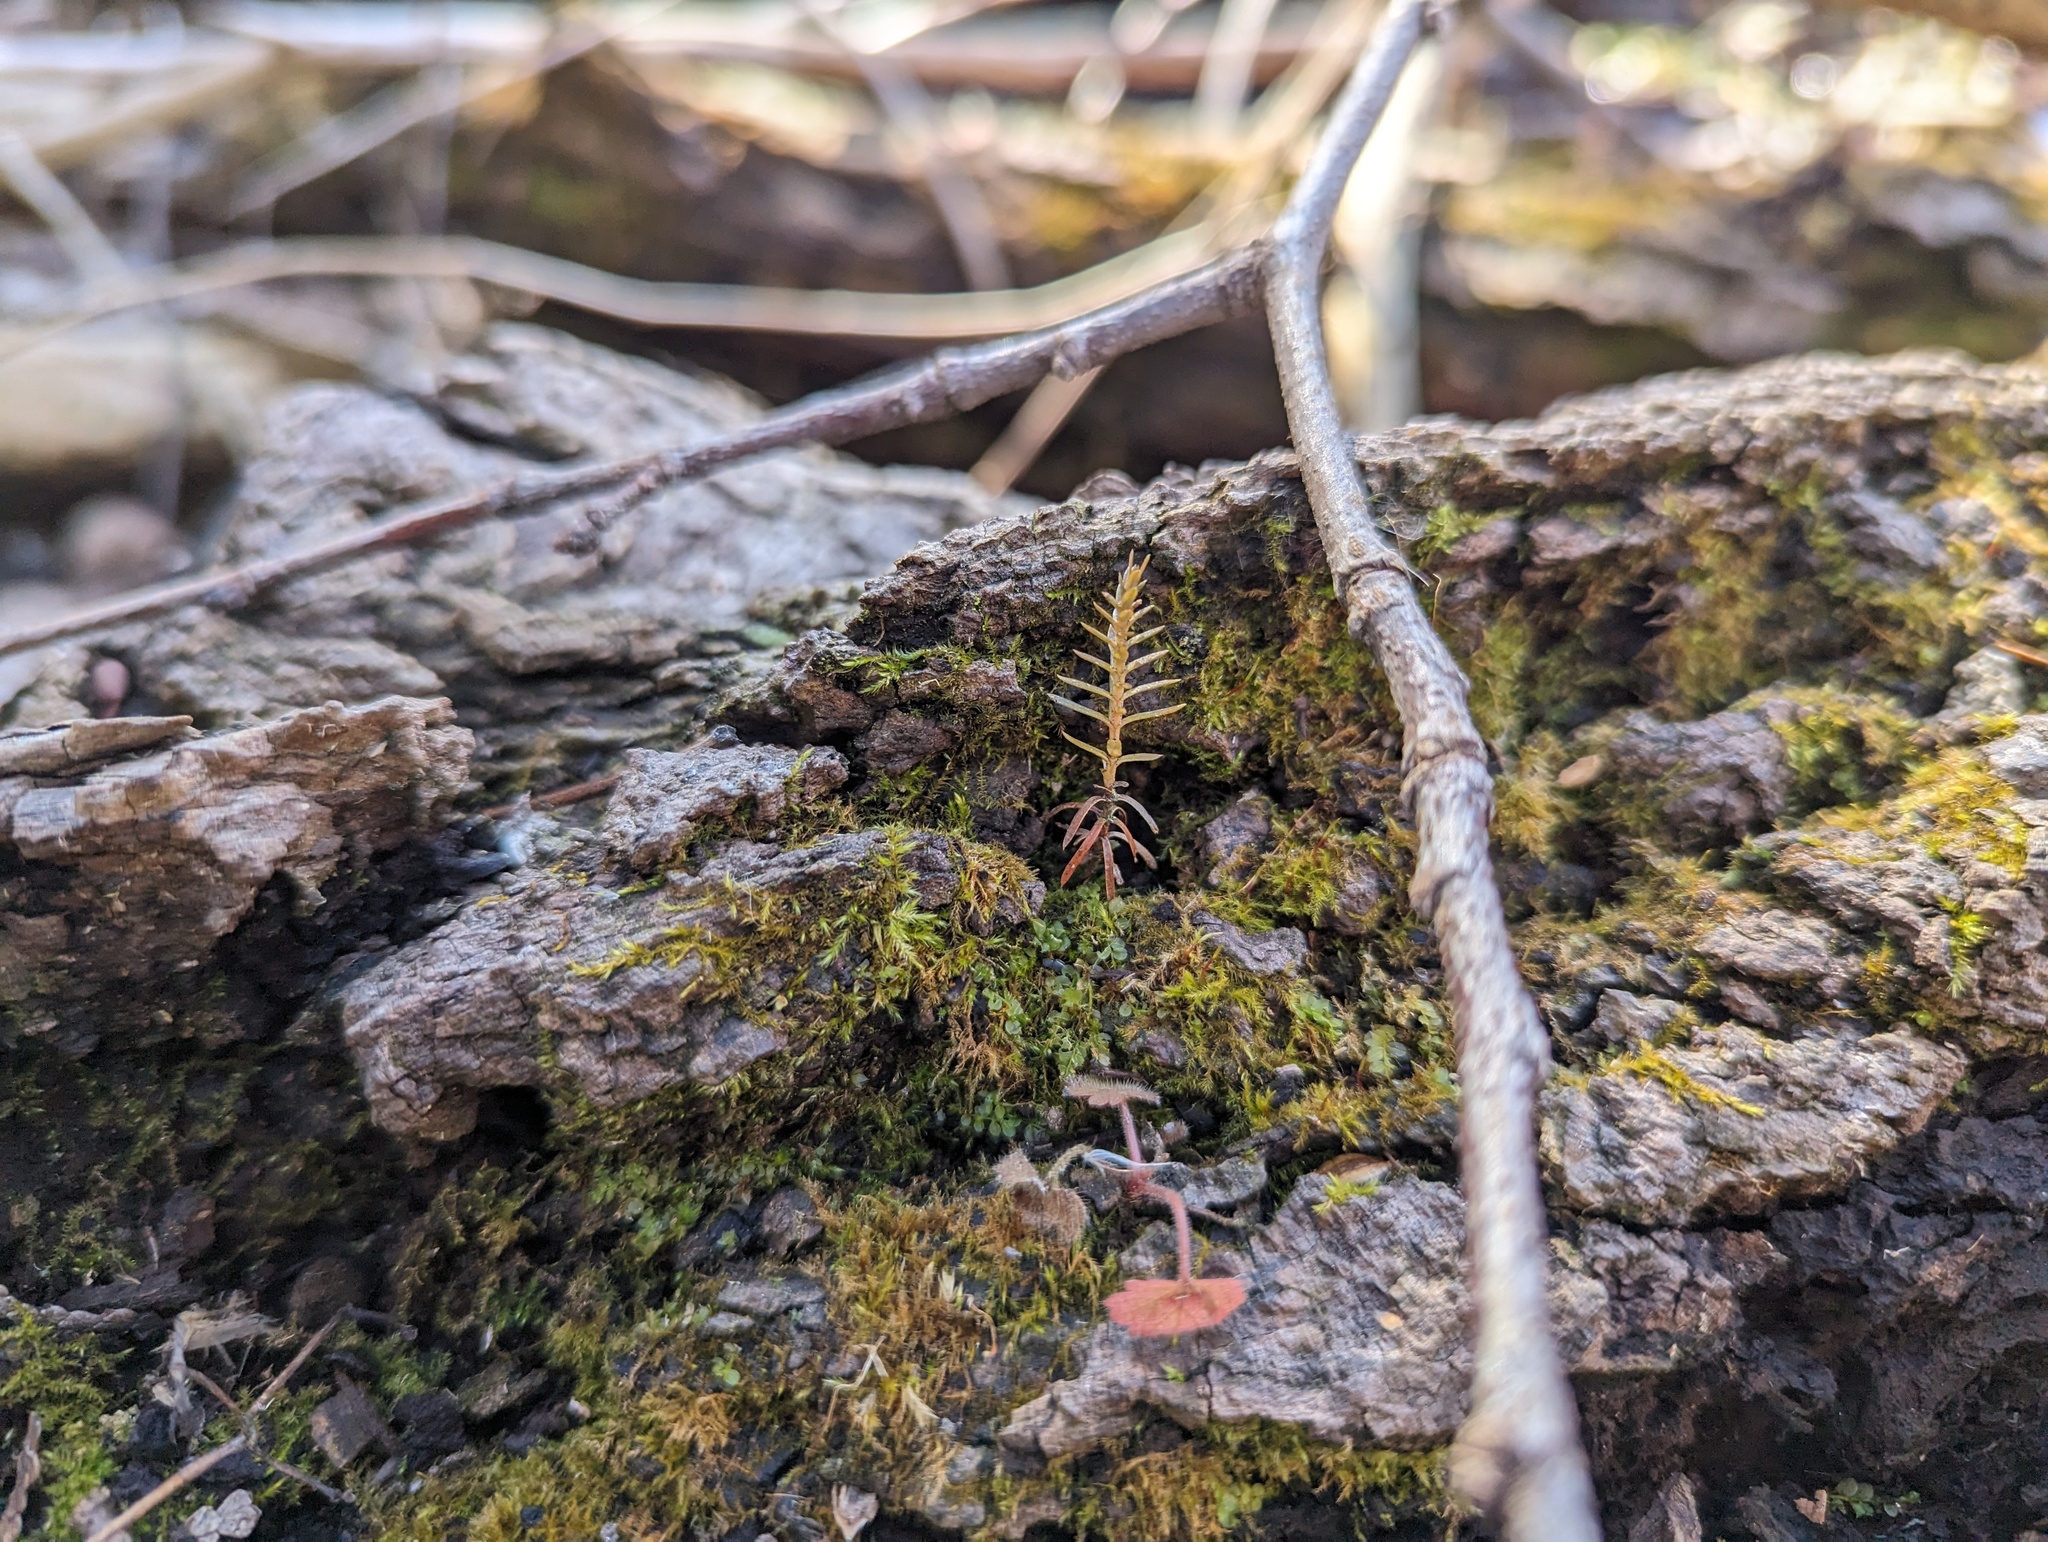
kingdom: Plantae
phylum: Tracheophyta
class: Pinopsida
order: Pinales
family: Cupressaceae
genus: Thuja
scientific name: Thuja occidentalis
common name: Northern white-cedar
